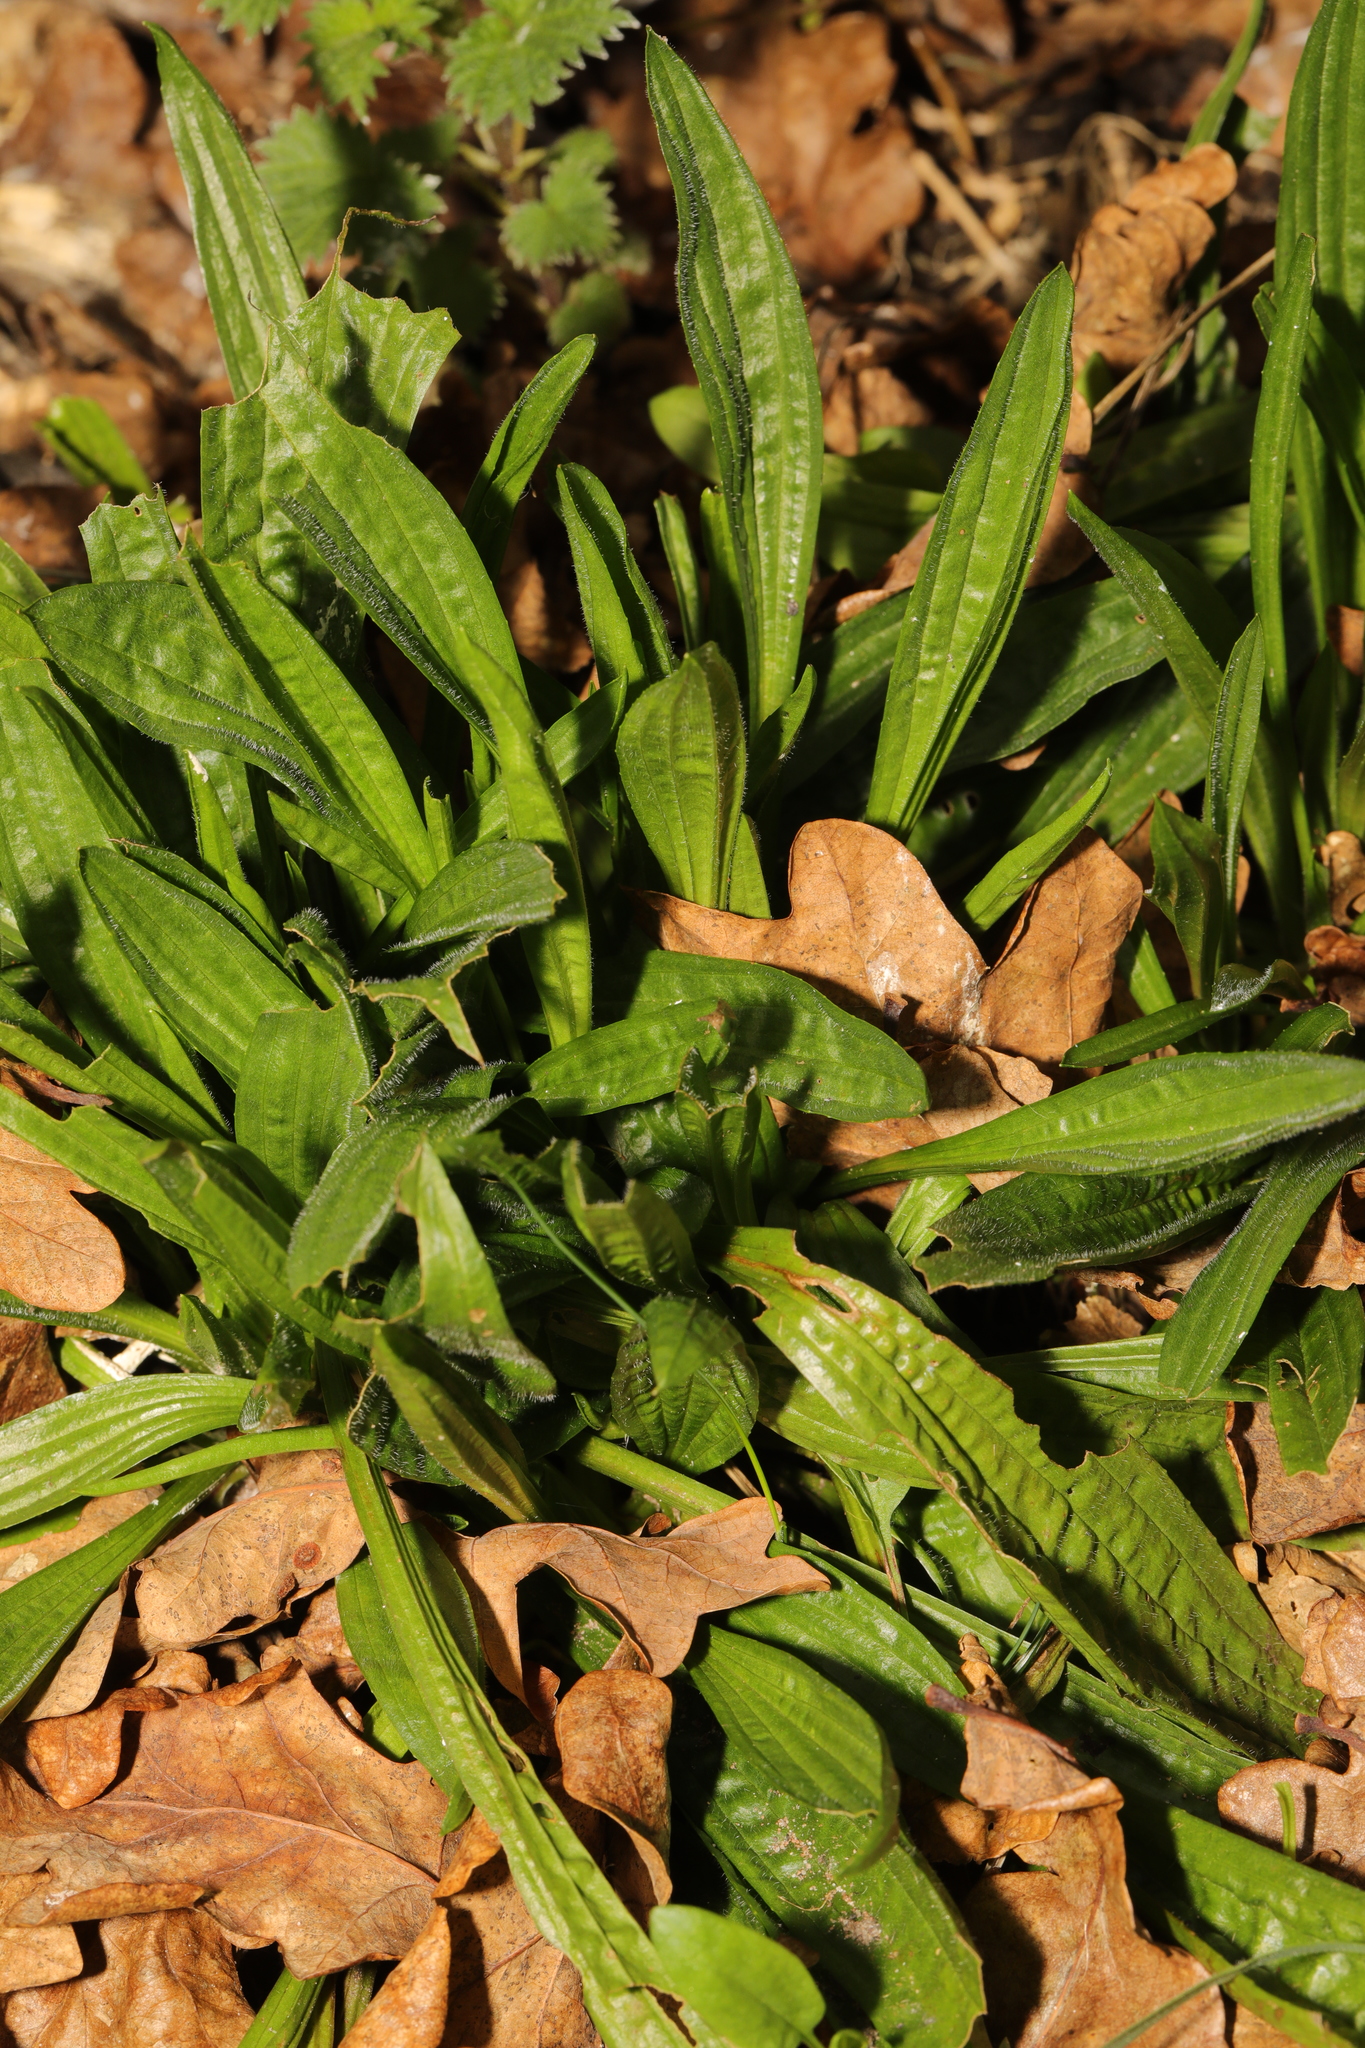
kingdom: Plantae
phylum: Tracheophyta
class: Magnoliopsida
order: Lamiales
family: Plantaginaceae
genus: Plantago
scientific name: Plantago lanceolata
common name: Ribwort plantain
